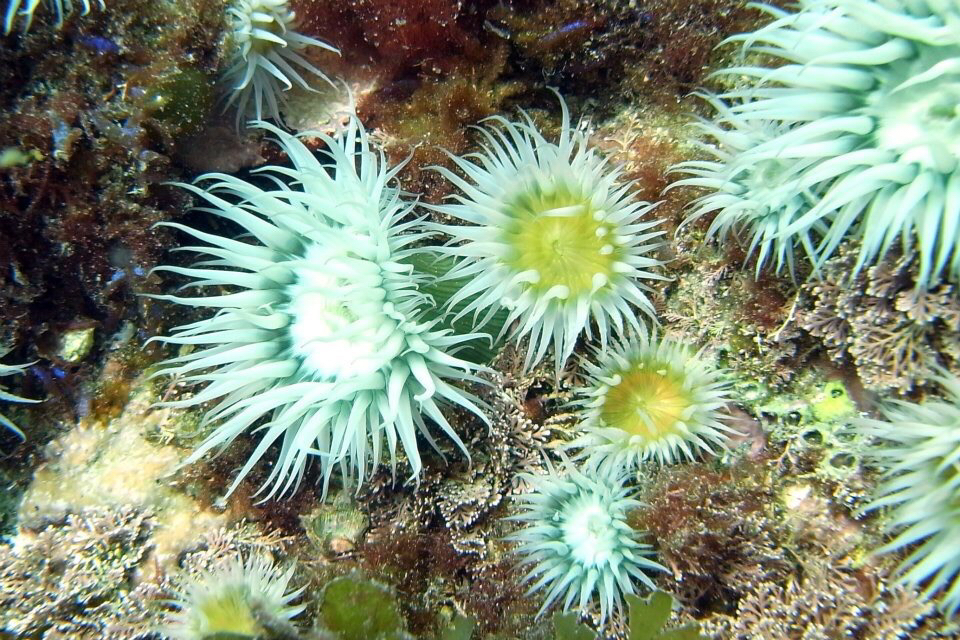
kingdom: Animalia
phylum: Cnidaria
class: Anthozoa
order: Actiniaria
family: Sagartiidae
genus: Anthothoe
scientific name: Anthothoe albocincta
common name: Orange striped anemone
